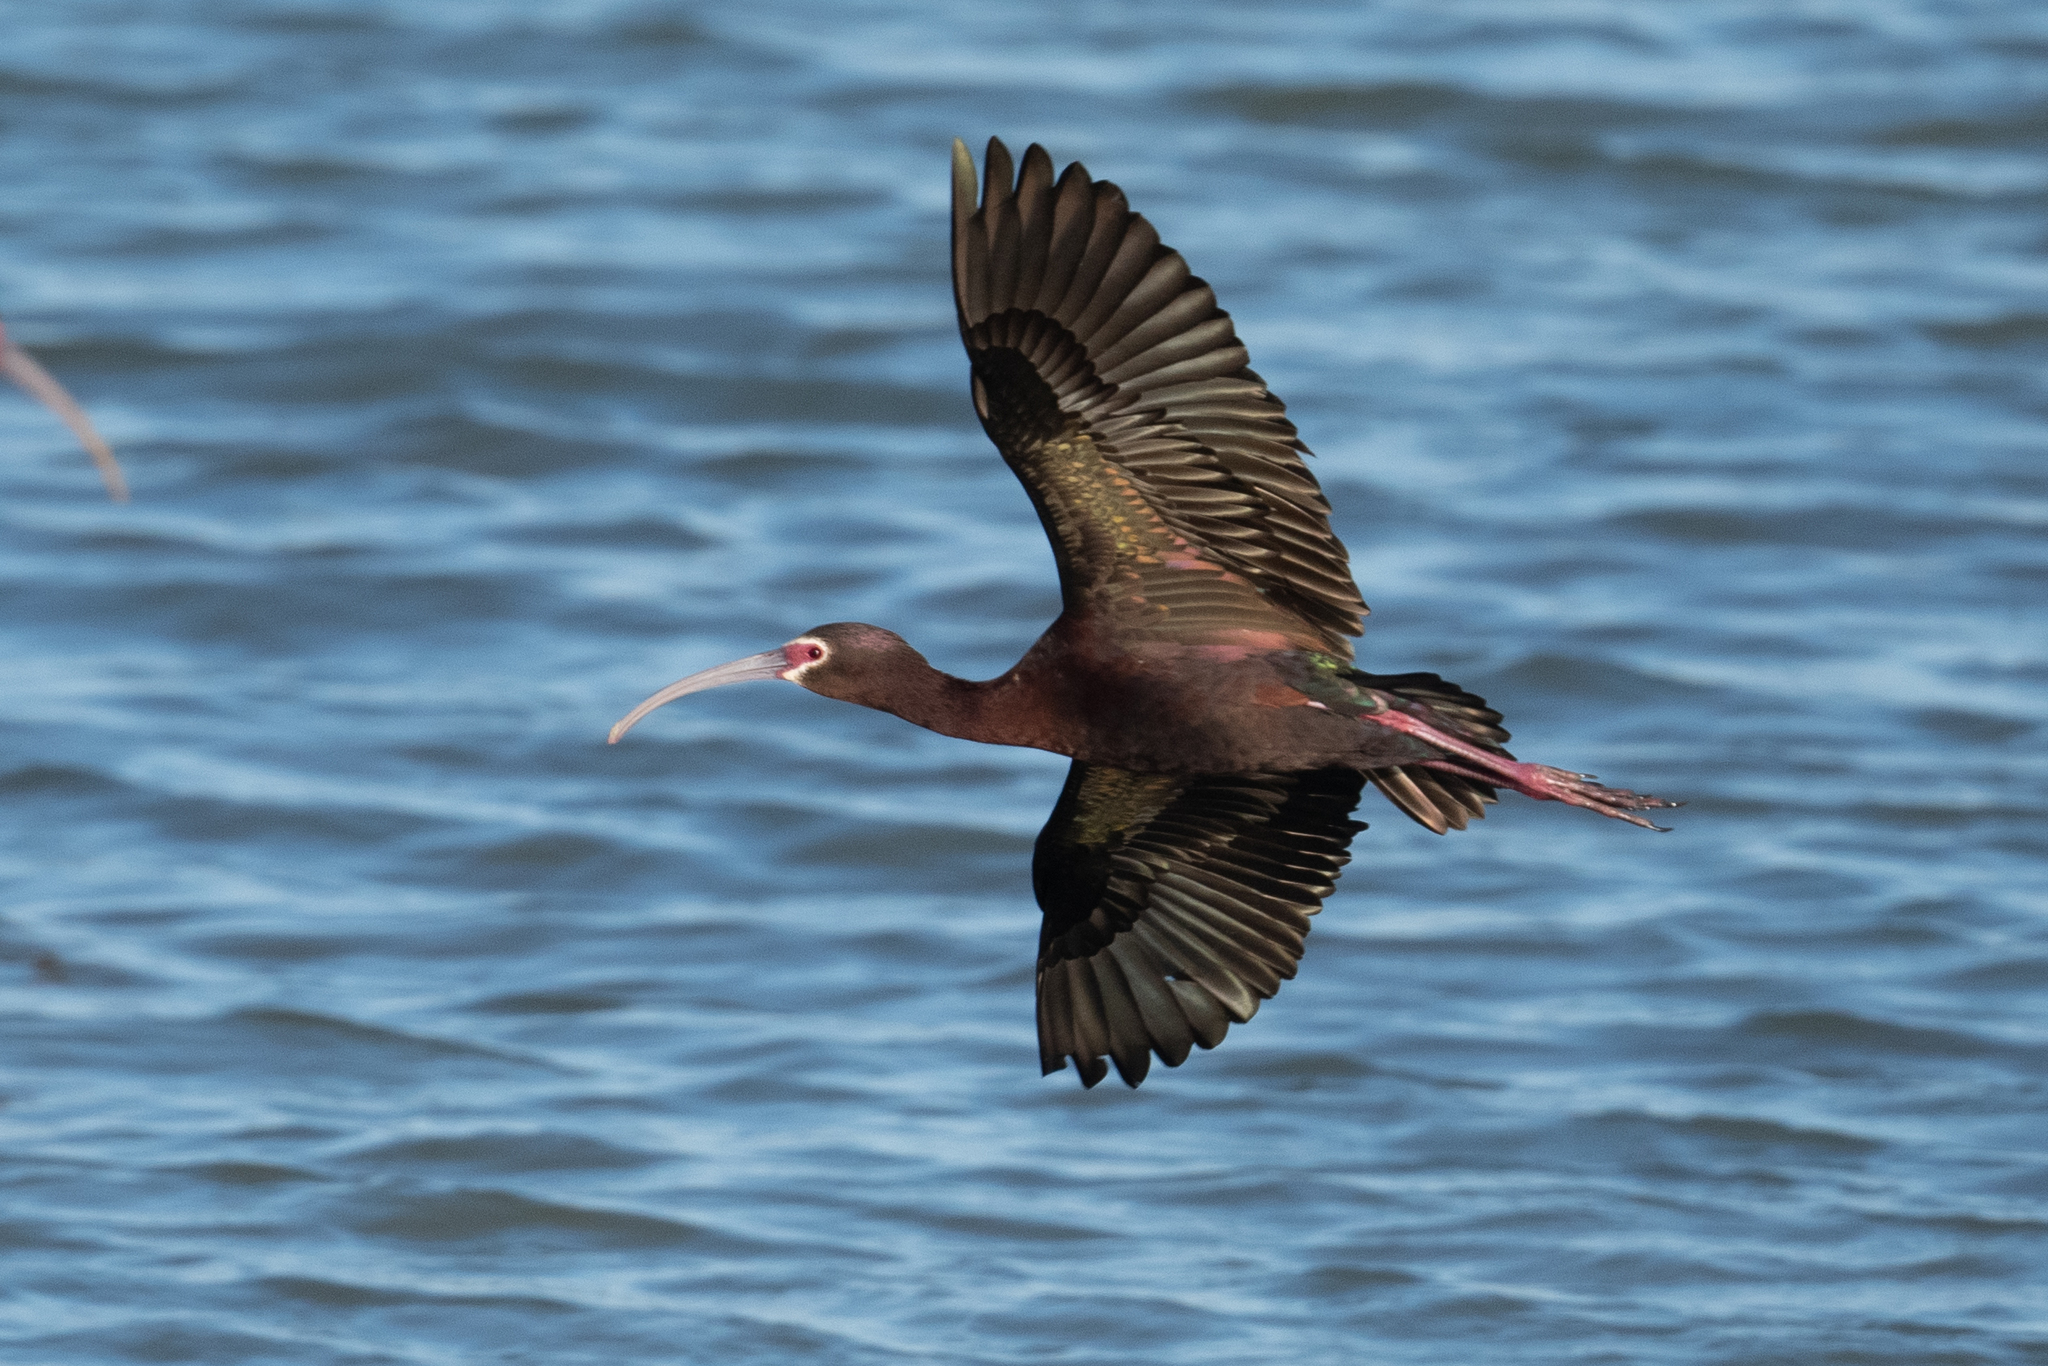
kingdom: Animalia
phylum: Chordata
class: Aves
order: Pelecaniformes
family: Threskiornithidae
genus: Plegadis
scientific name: Plegadis chihi
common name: White-faced ibis
